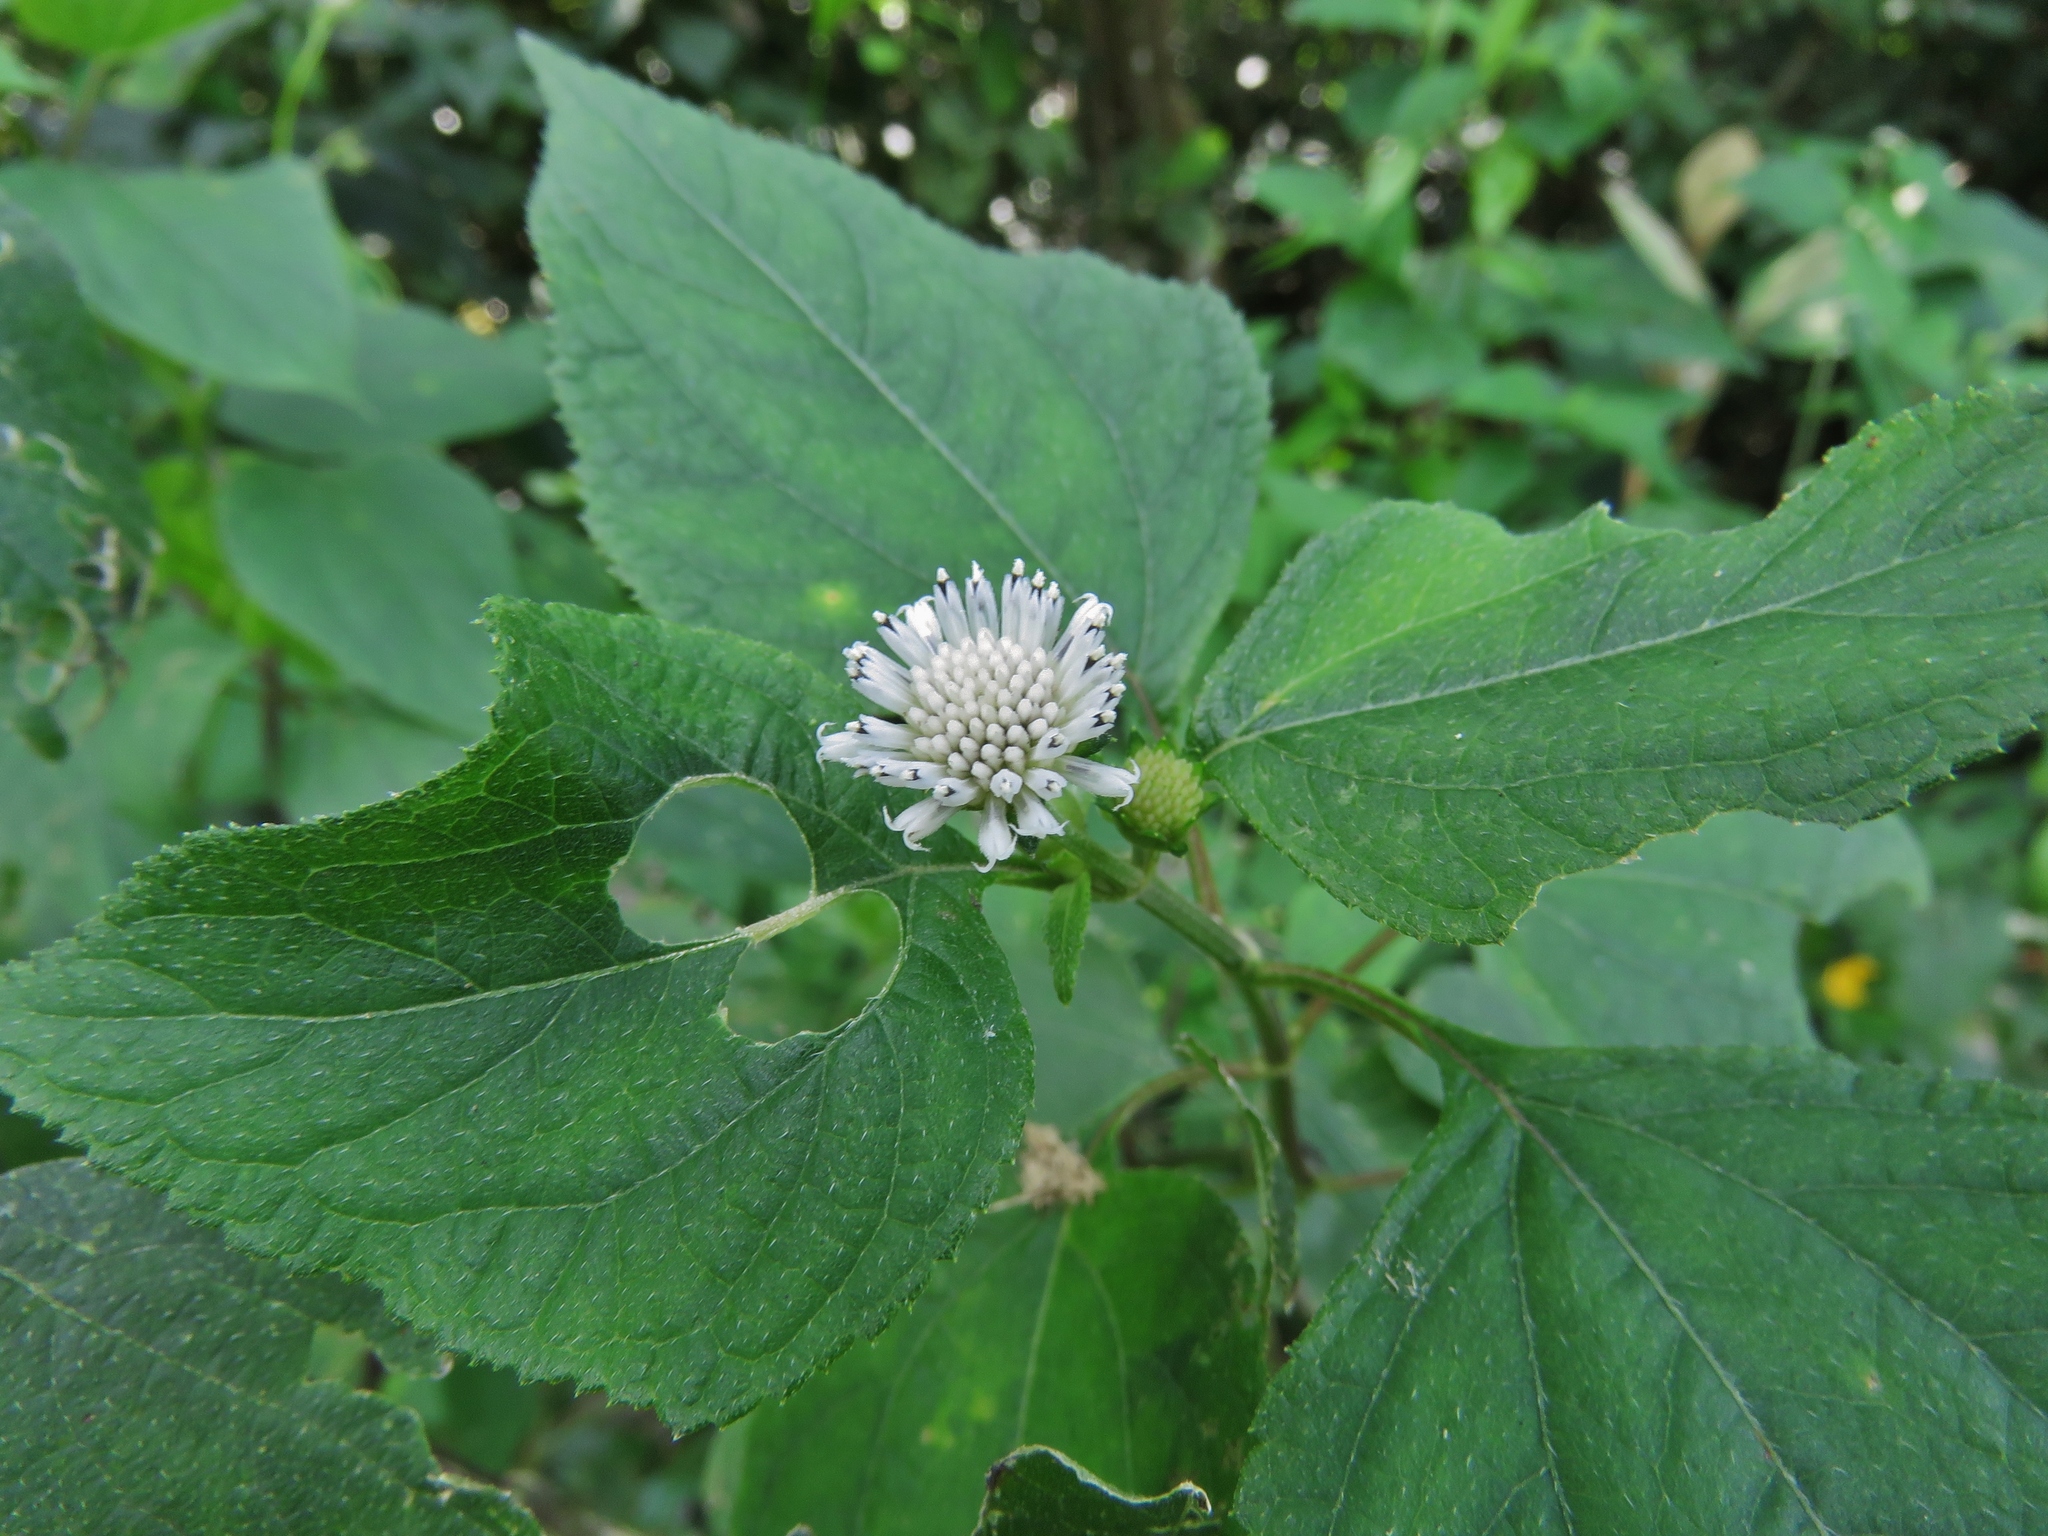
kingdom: Plantae
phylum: Tracheophyta
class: Magnoliopsida
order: Asterales
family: Asteraceae
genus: Melanthera
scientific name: Melanthera nivea
